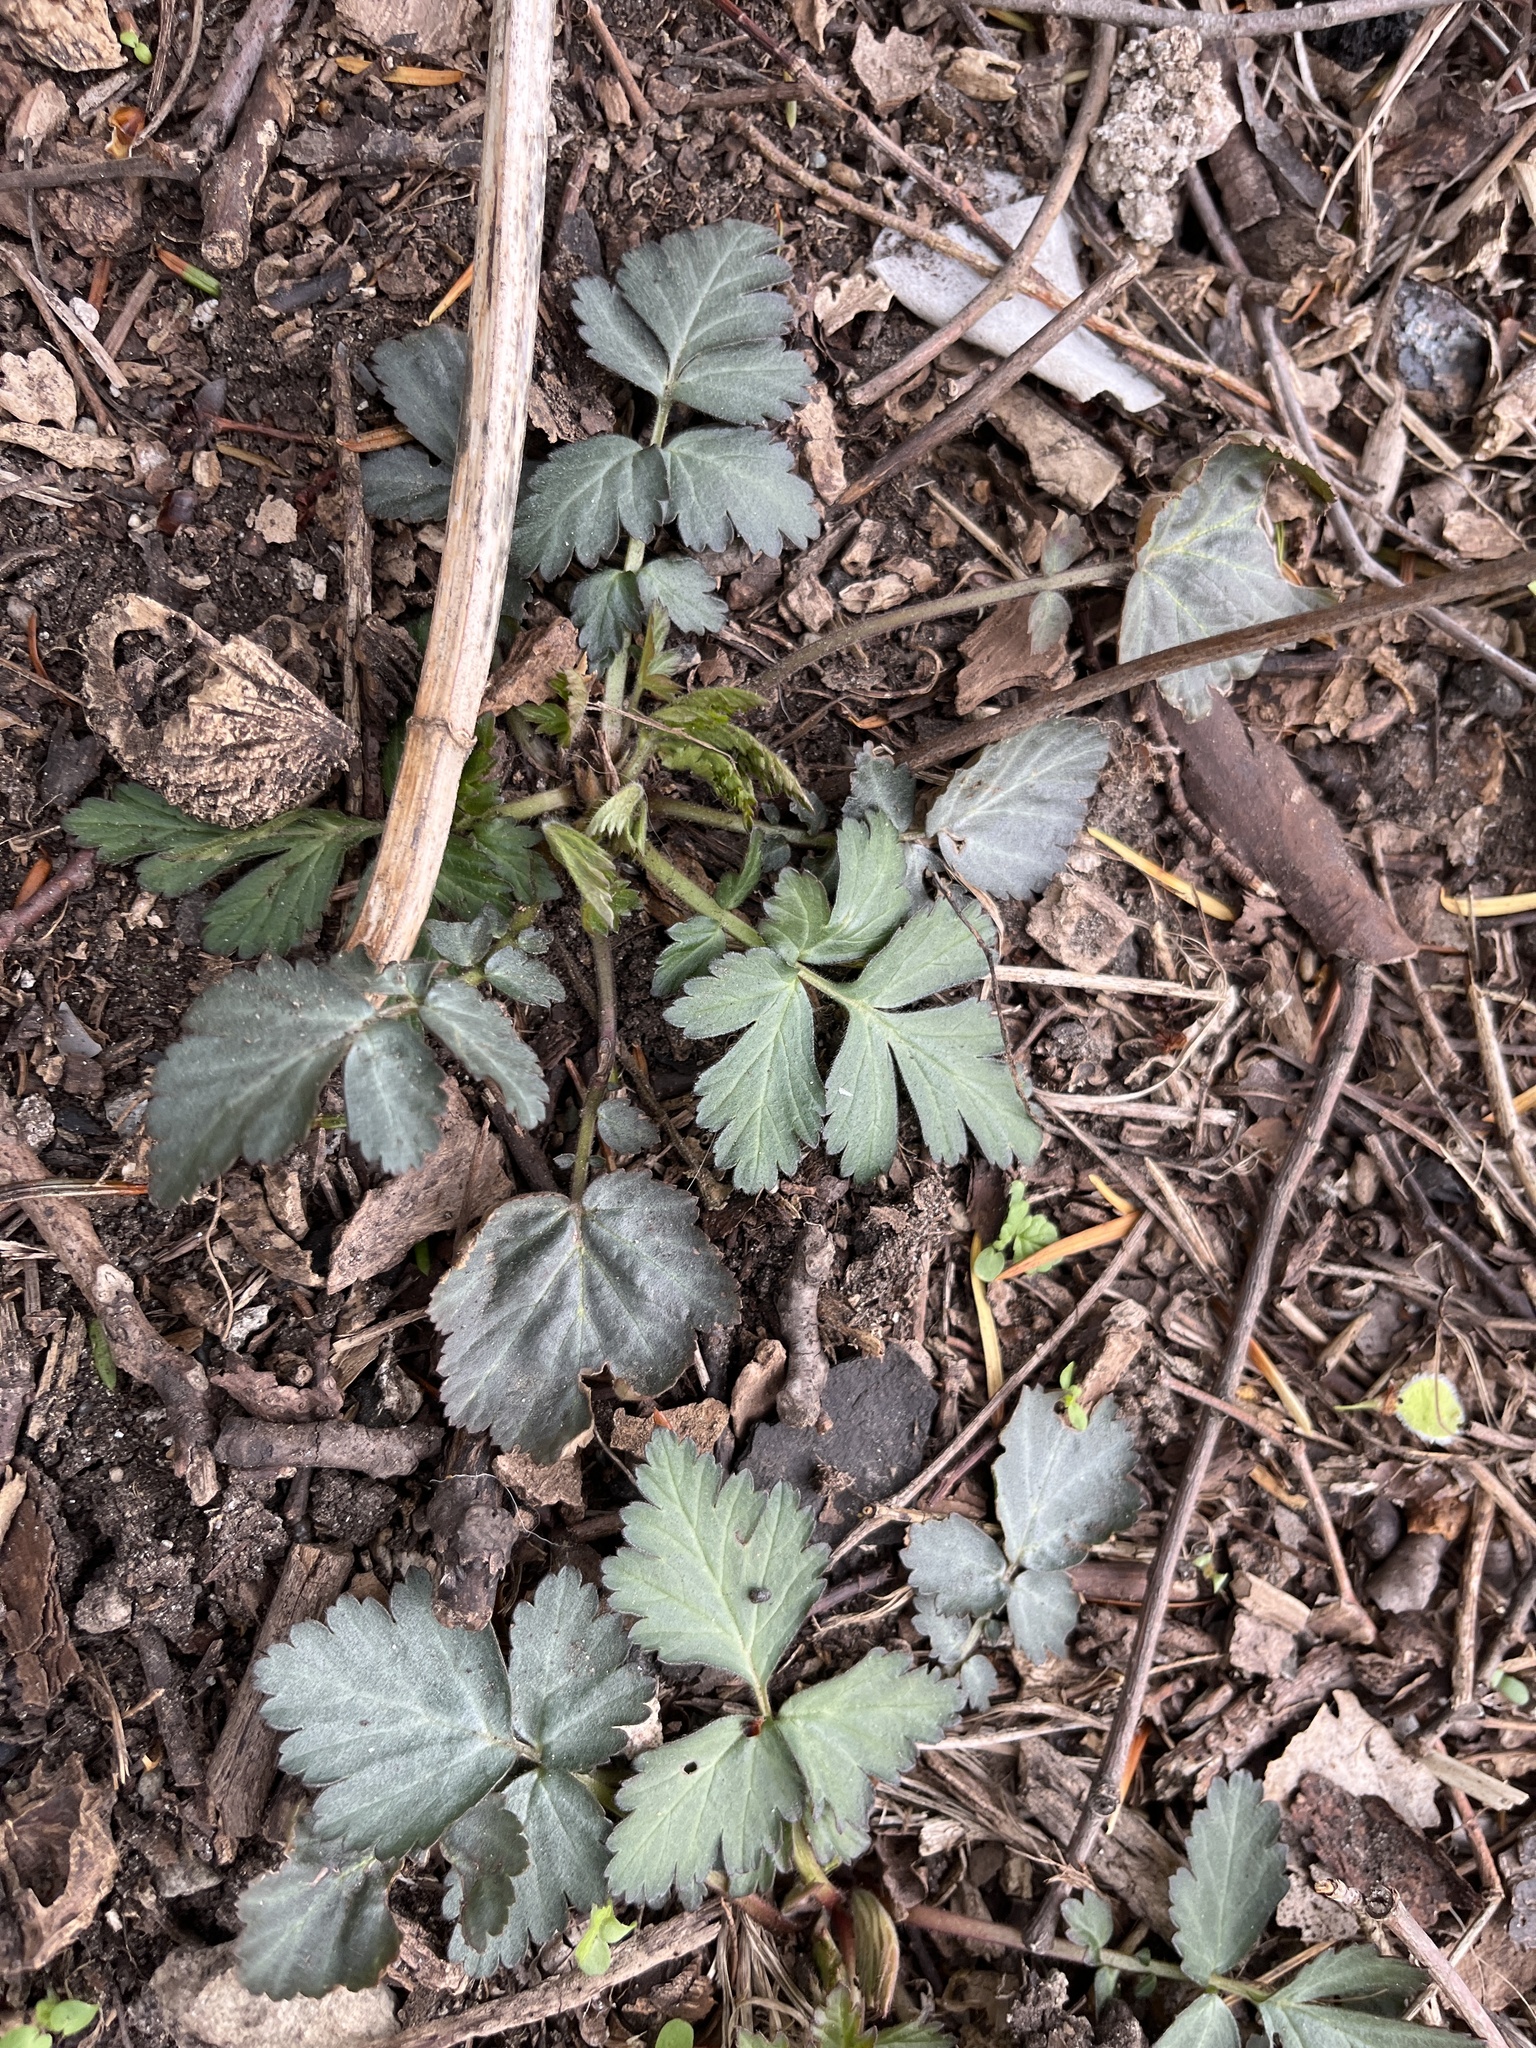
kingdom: Plantae
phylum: Tracheophyta
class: Magnoliopsida
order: Rosales
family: Rosaceae
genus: Geum
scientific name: Geum canadense
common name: White avens
